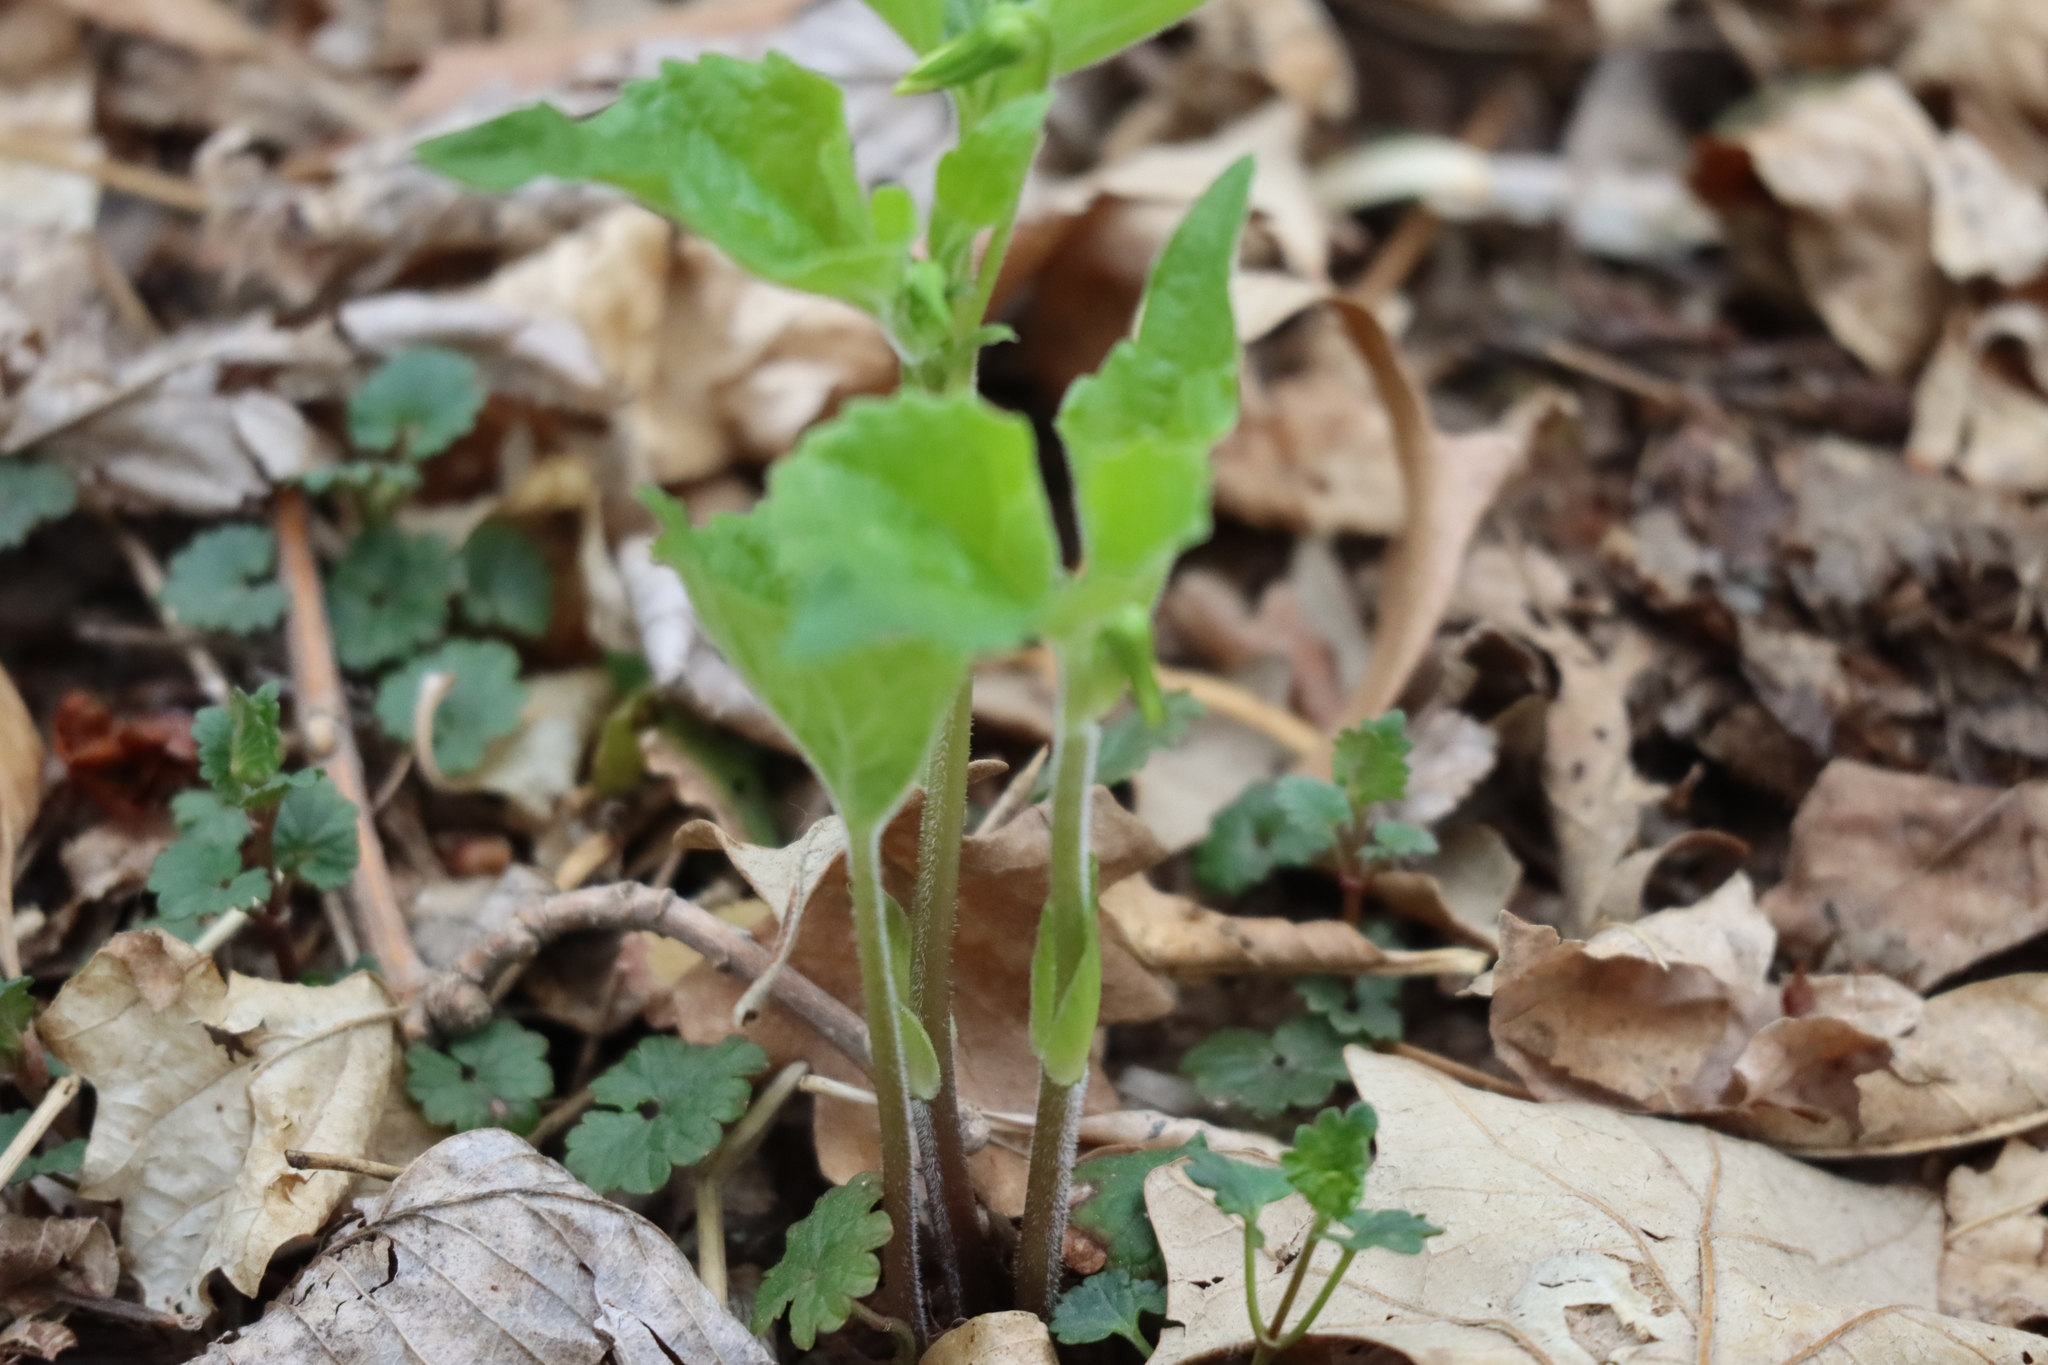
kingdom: Plantae
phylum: Tracheophyta
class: Magnoliopsida
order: Malpighiales
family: Violaceae
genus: Viola
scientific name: Viola eriocarpa
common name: Smooth yellow violet
